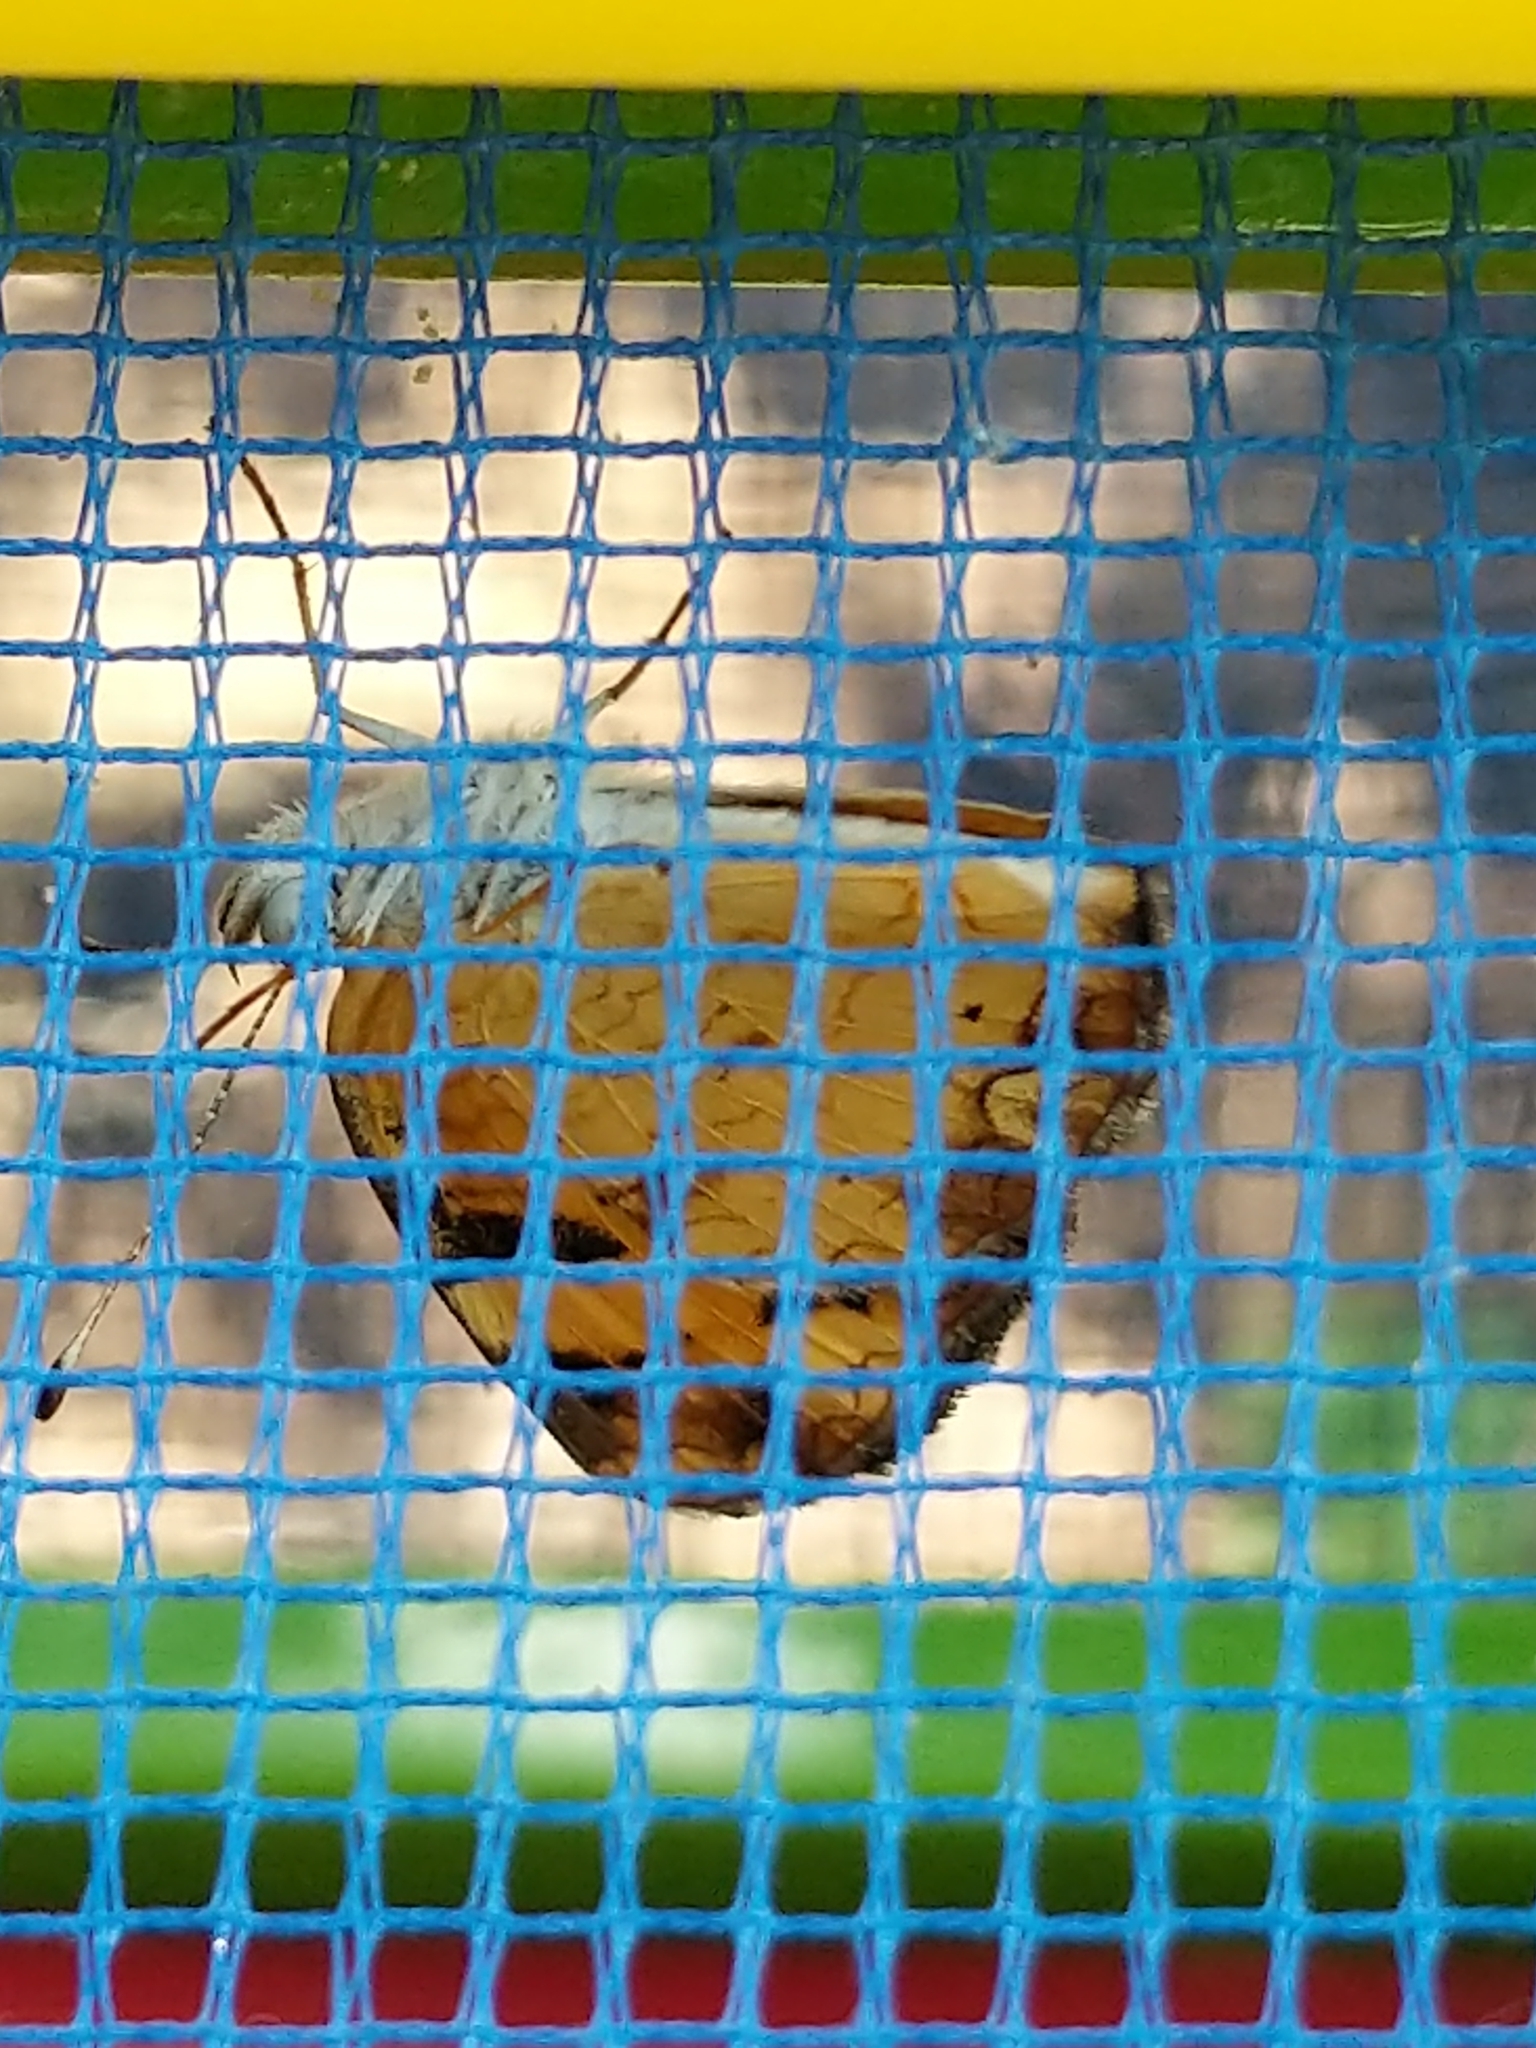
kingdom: Animalia
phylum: Arthropoda
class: Insecta
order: Lepidoptera
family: Nymphalidae
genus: Phyciodes
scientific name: Phyciodes tharos
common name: Pearl crescent
